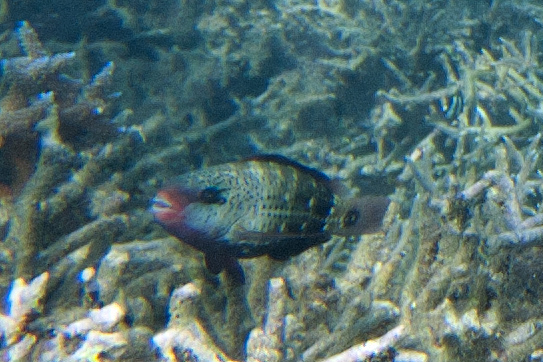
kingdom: Animalia
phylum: Chordata
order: Perciformes
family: Scaridae
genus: Chlorurus
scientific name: Chlorurus spilurus
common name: Bullethead parrotfish
